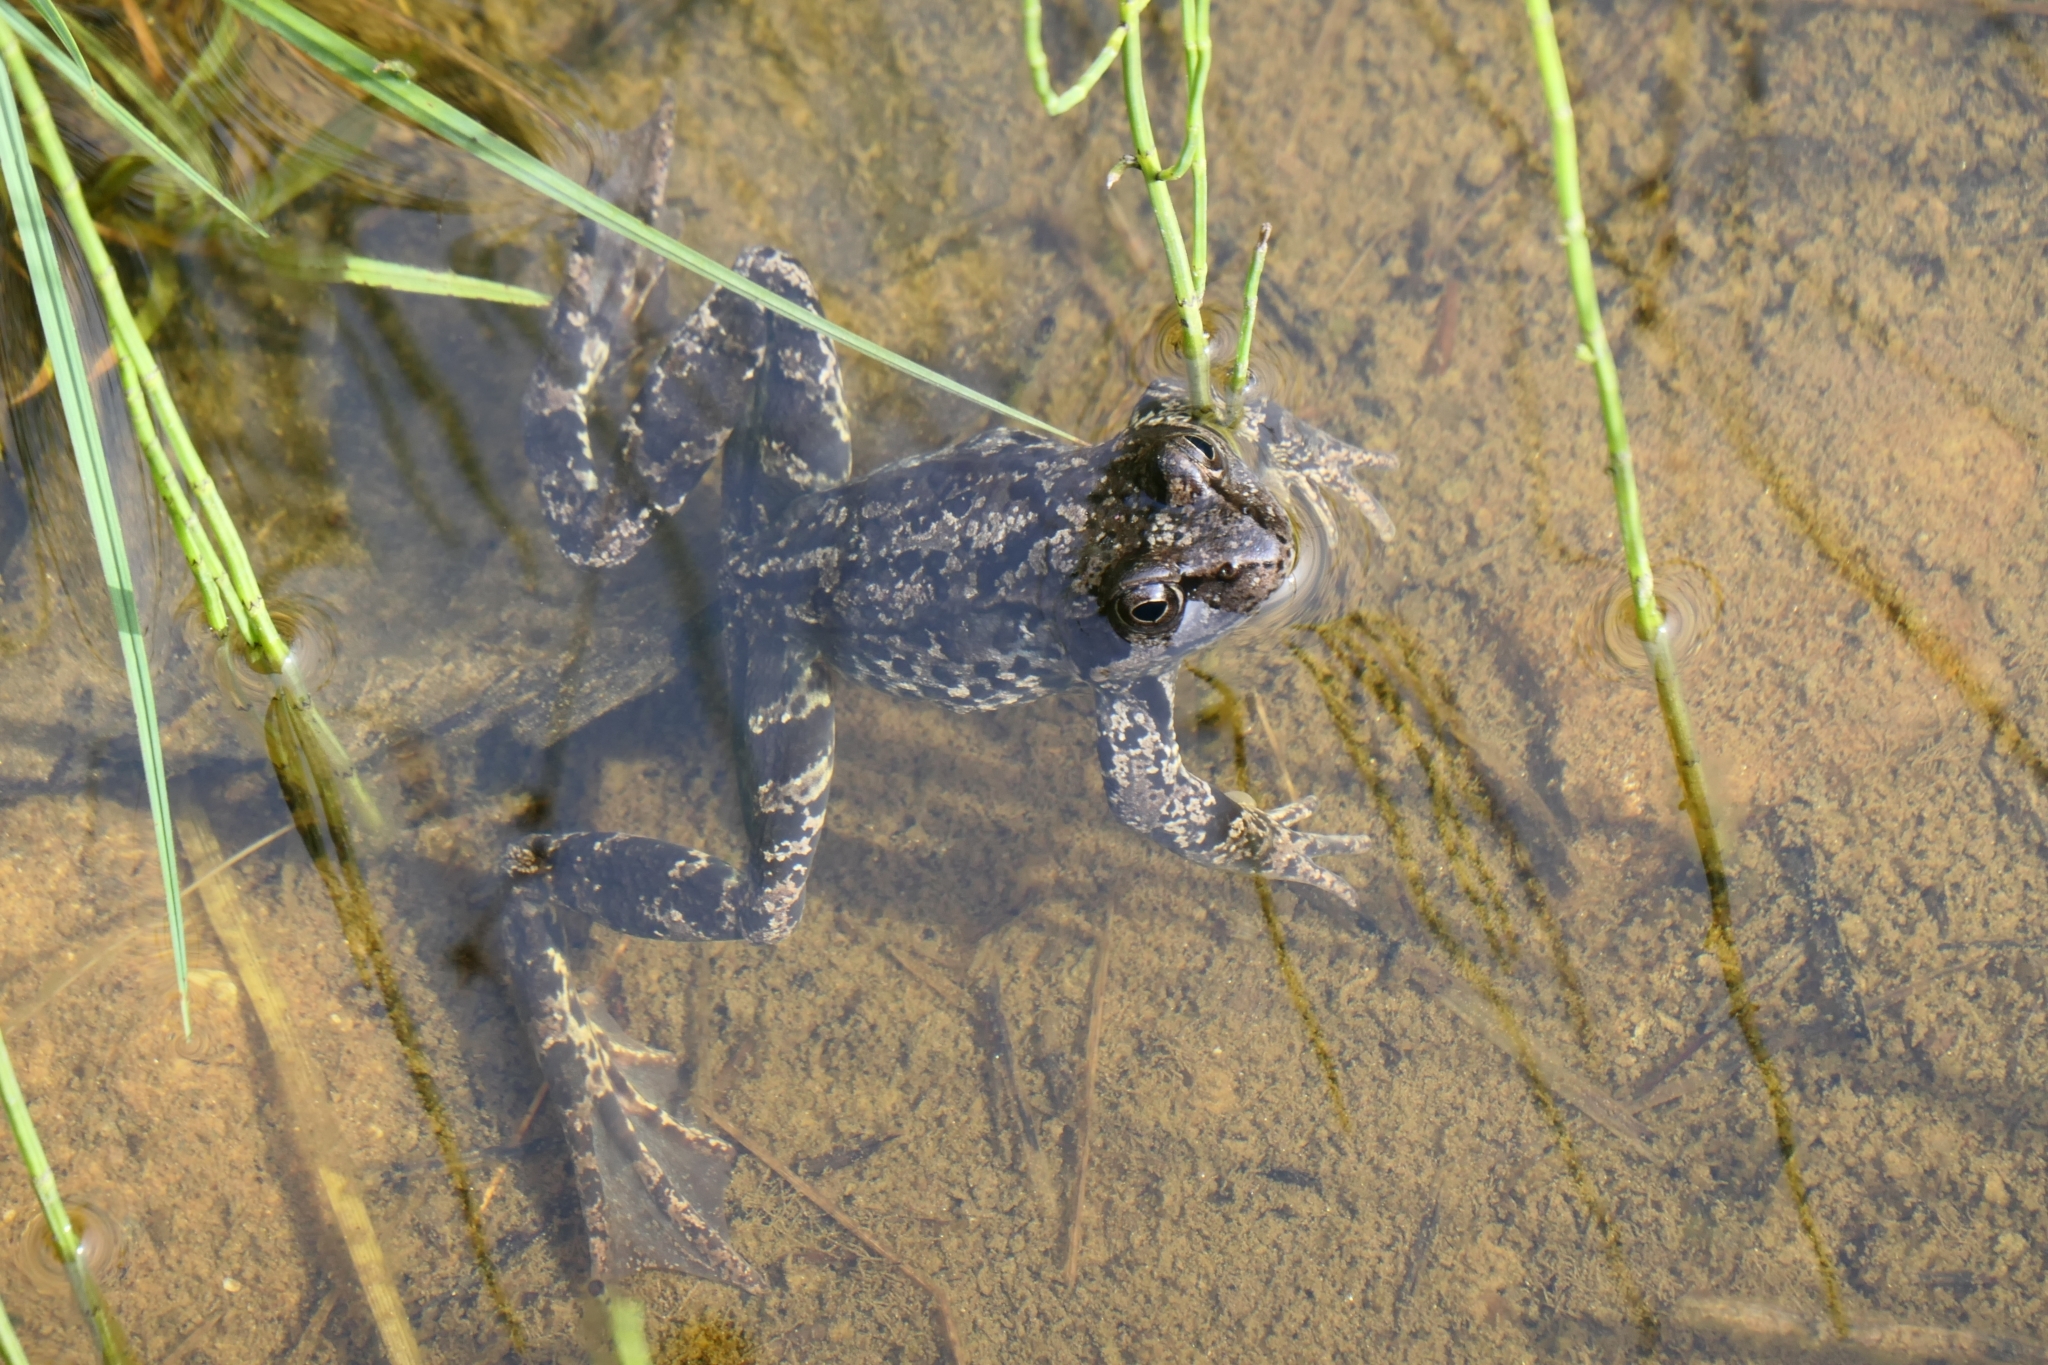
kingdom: Animalia
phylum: Chordata
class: Amphibia
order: Anura
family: Ranidae
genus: Rana
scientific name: Rana temporaria
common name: Common frog
